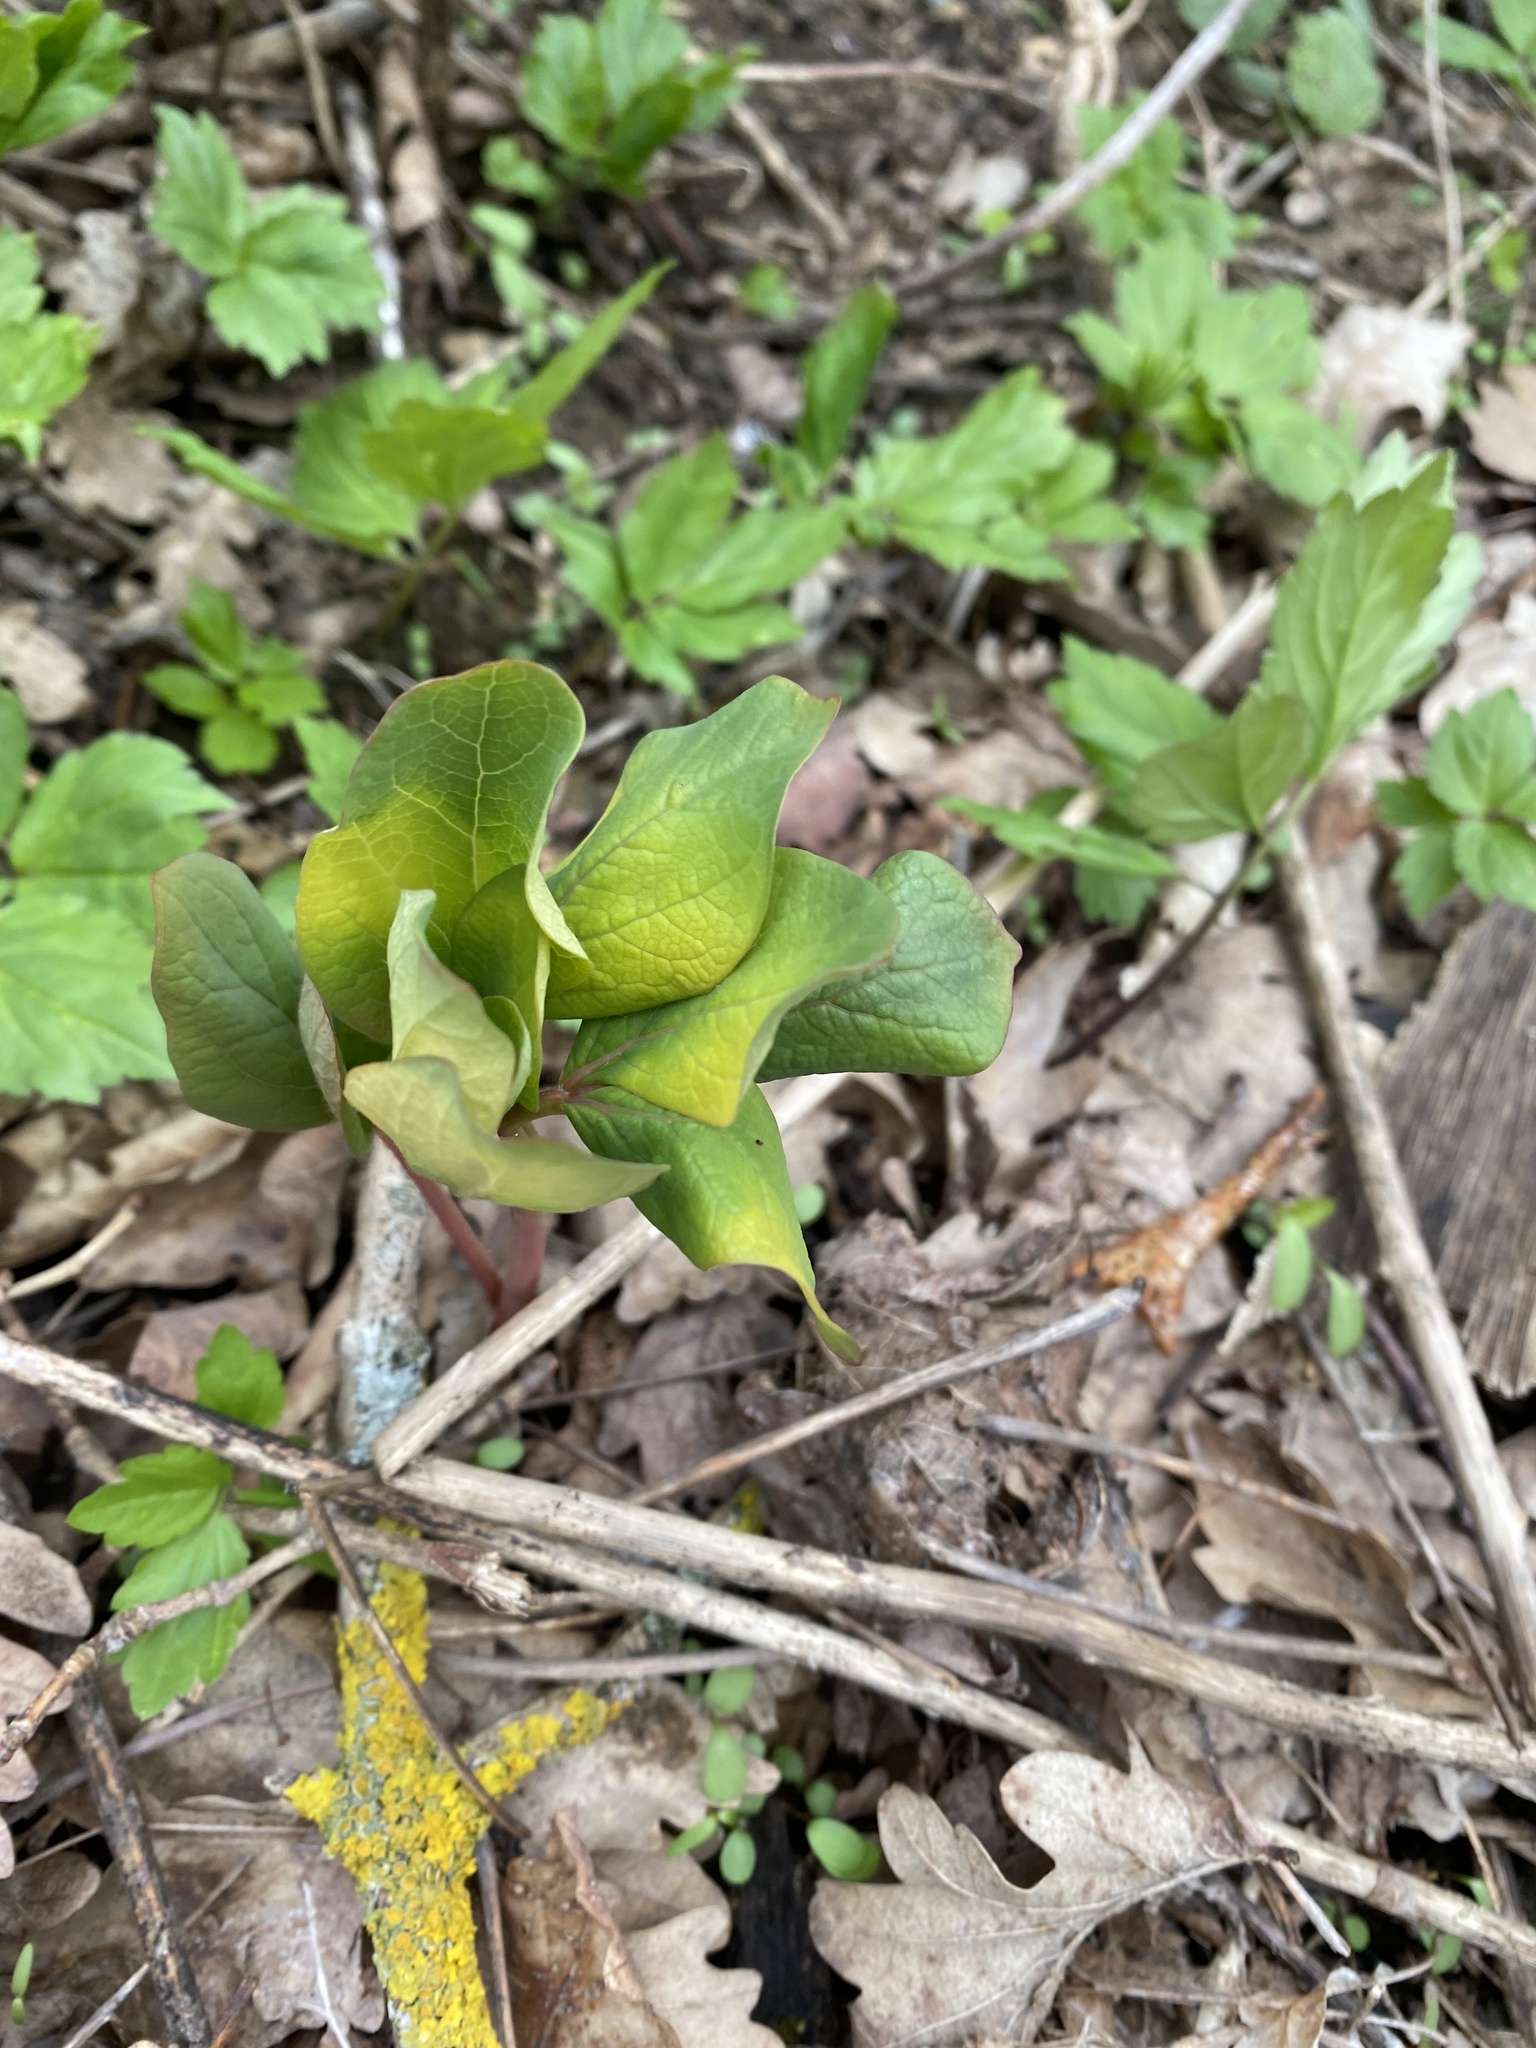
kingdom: Plantae
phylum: Tracheophyta
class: Magnoliopsida
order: Saxifragales
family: Paeoniaceae
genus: Paeonia
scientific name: Paeonia caucasica
